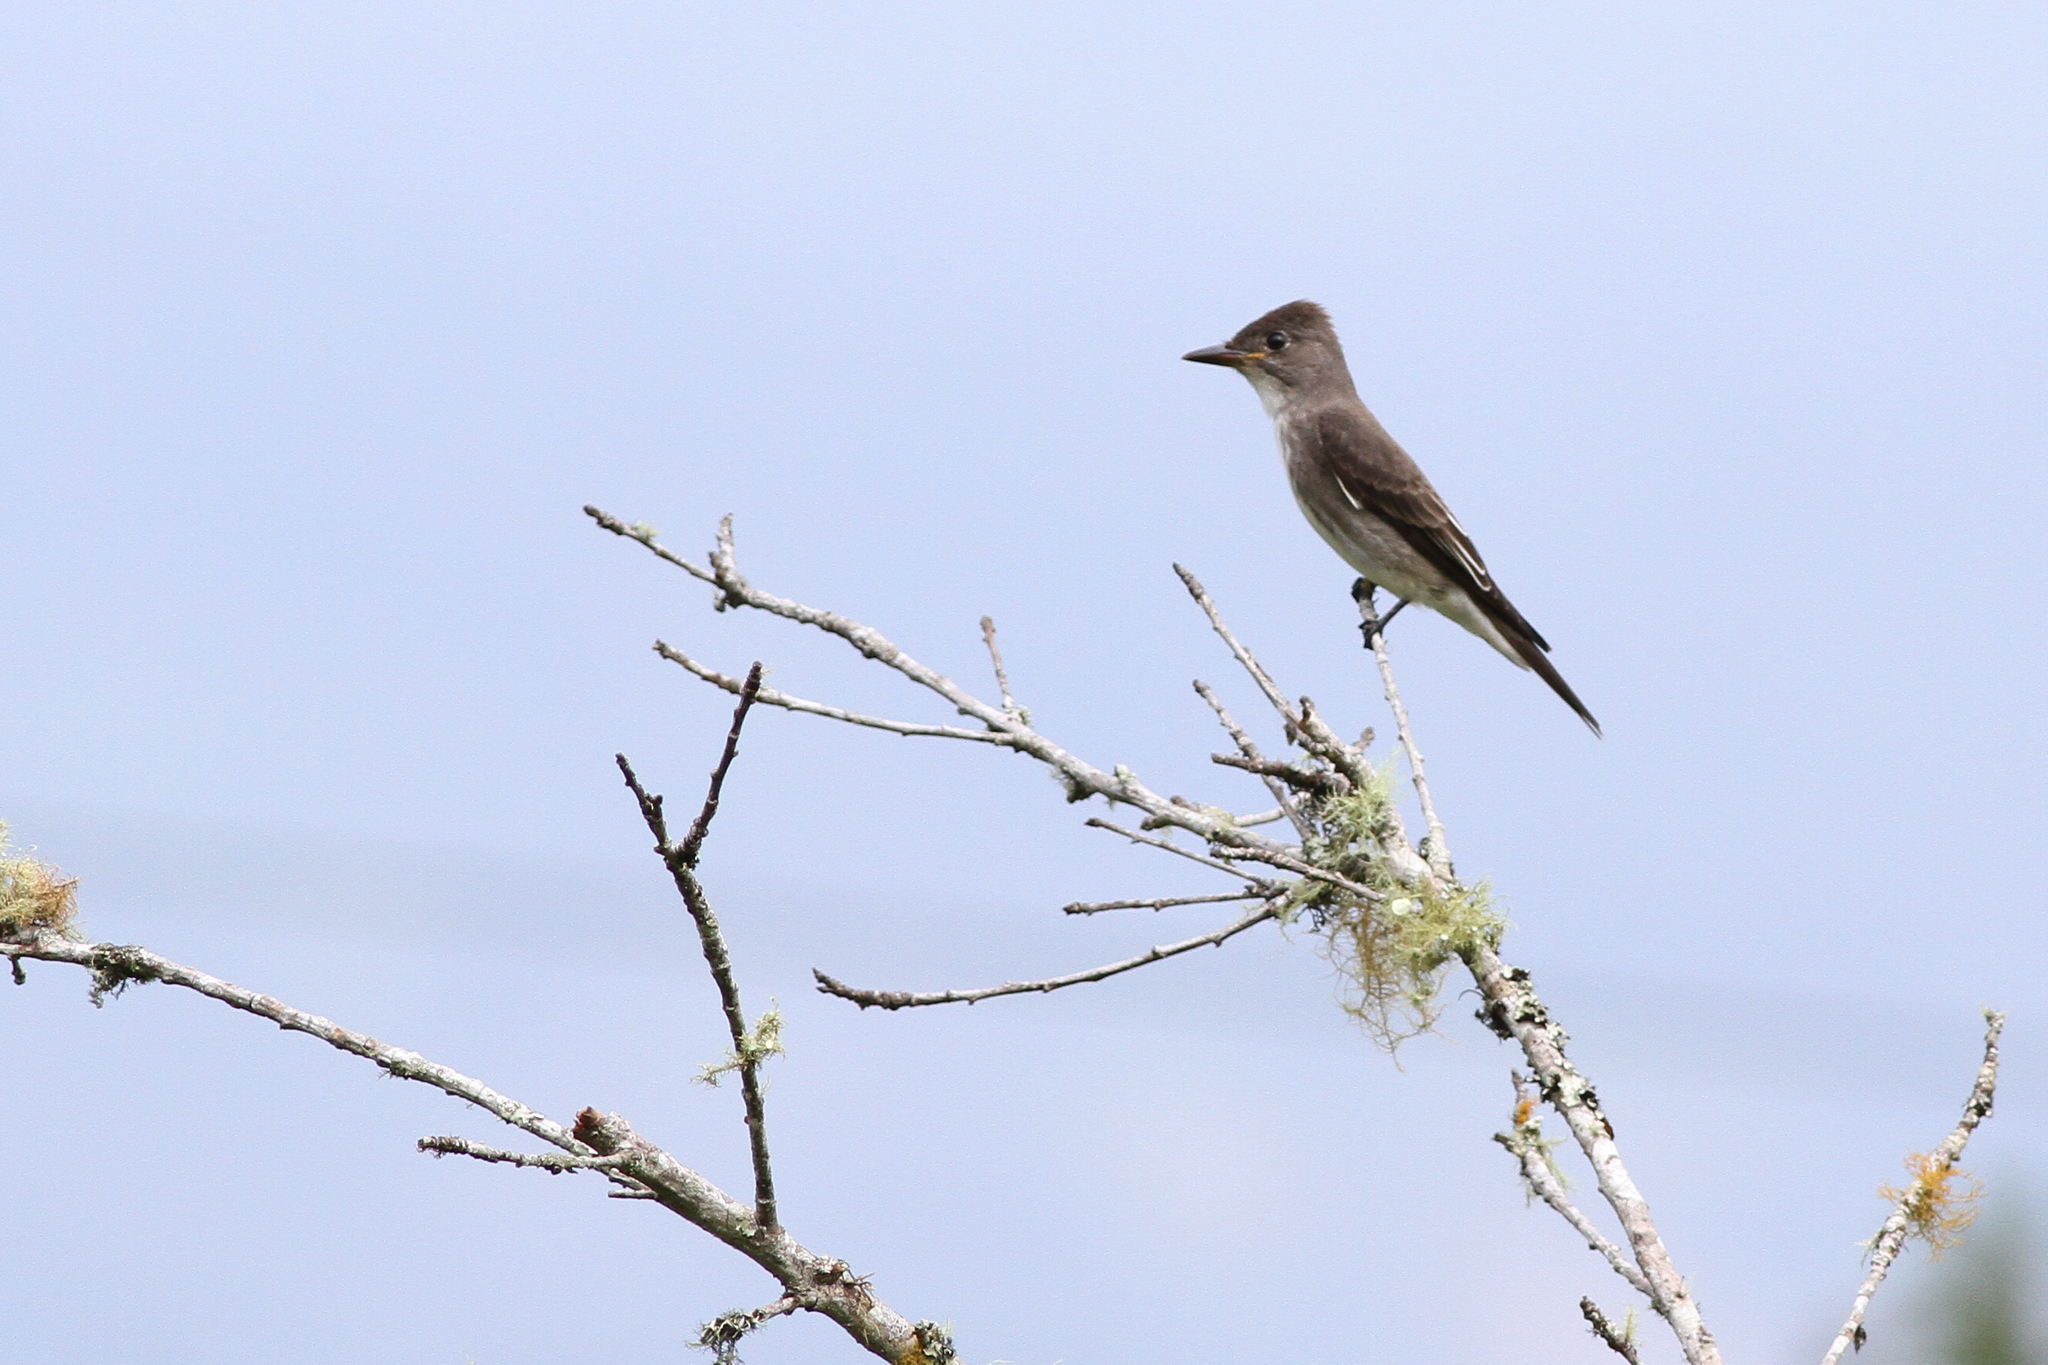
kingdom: Animalia
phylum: Chordata
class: Aves
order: Passeriformes
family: Tyrannidae
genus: Contopus
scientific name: Contopus cooperi
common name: Olive-sided flycatcher
